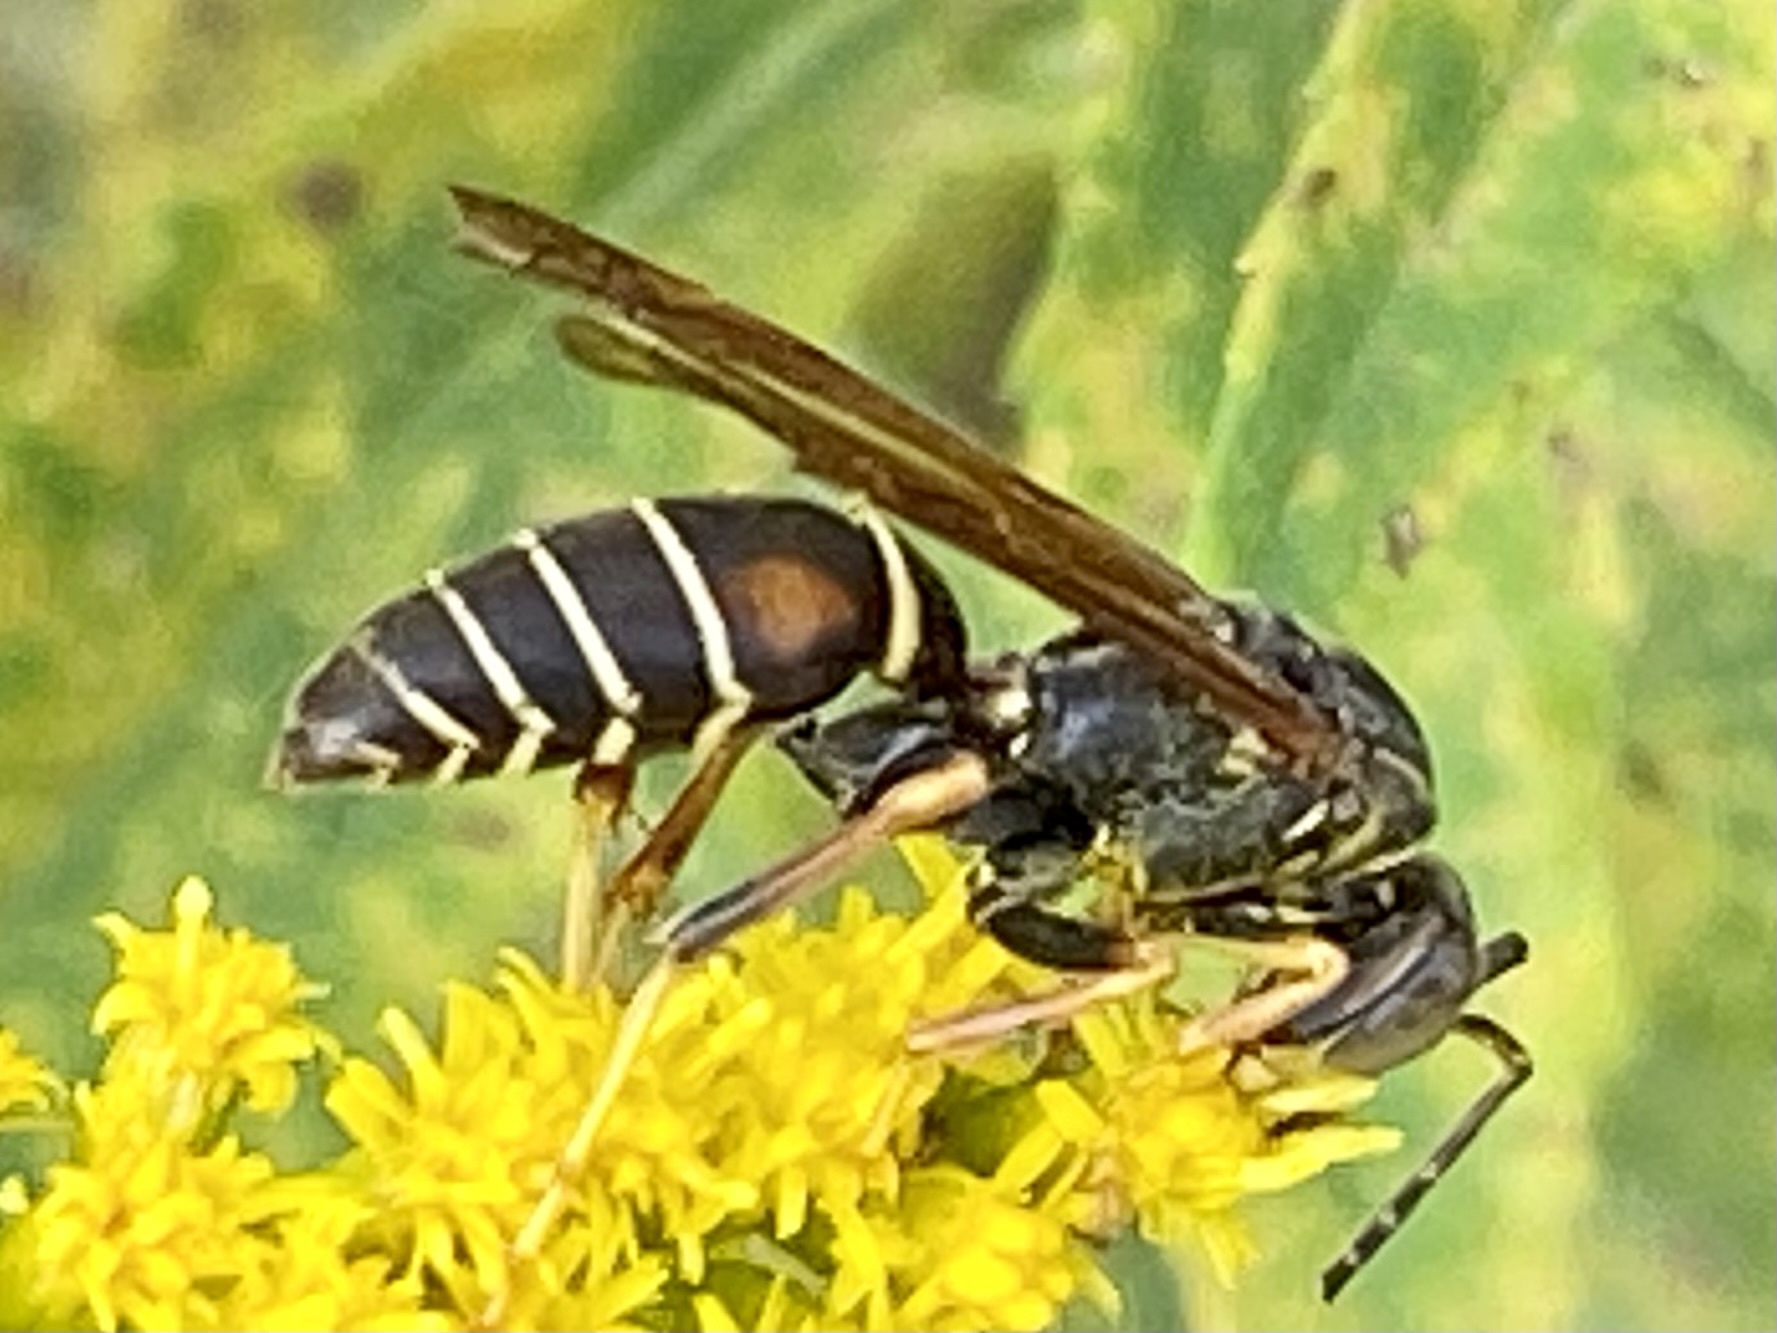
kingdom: Animalia
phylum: Arthropoda
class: Insecta
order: Hymenoptera
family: Eumenidae
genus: Polistes
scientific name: Polistes fuscatus
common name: Dark paper wasp
